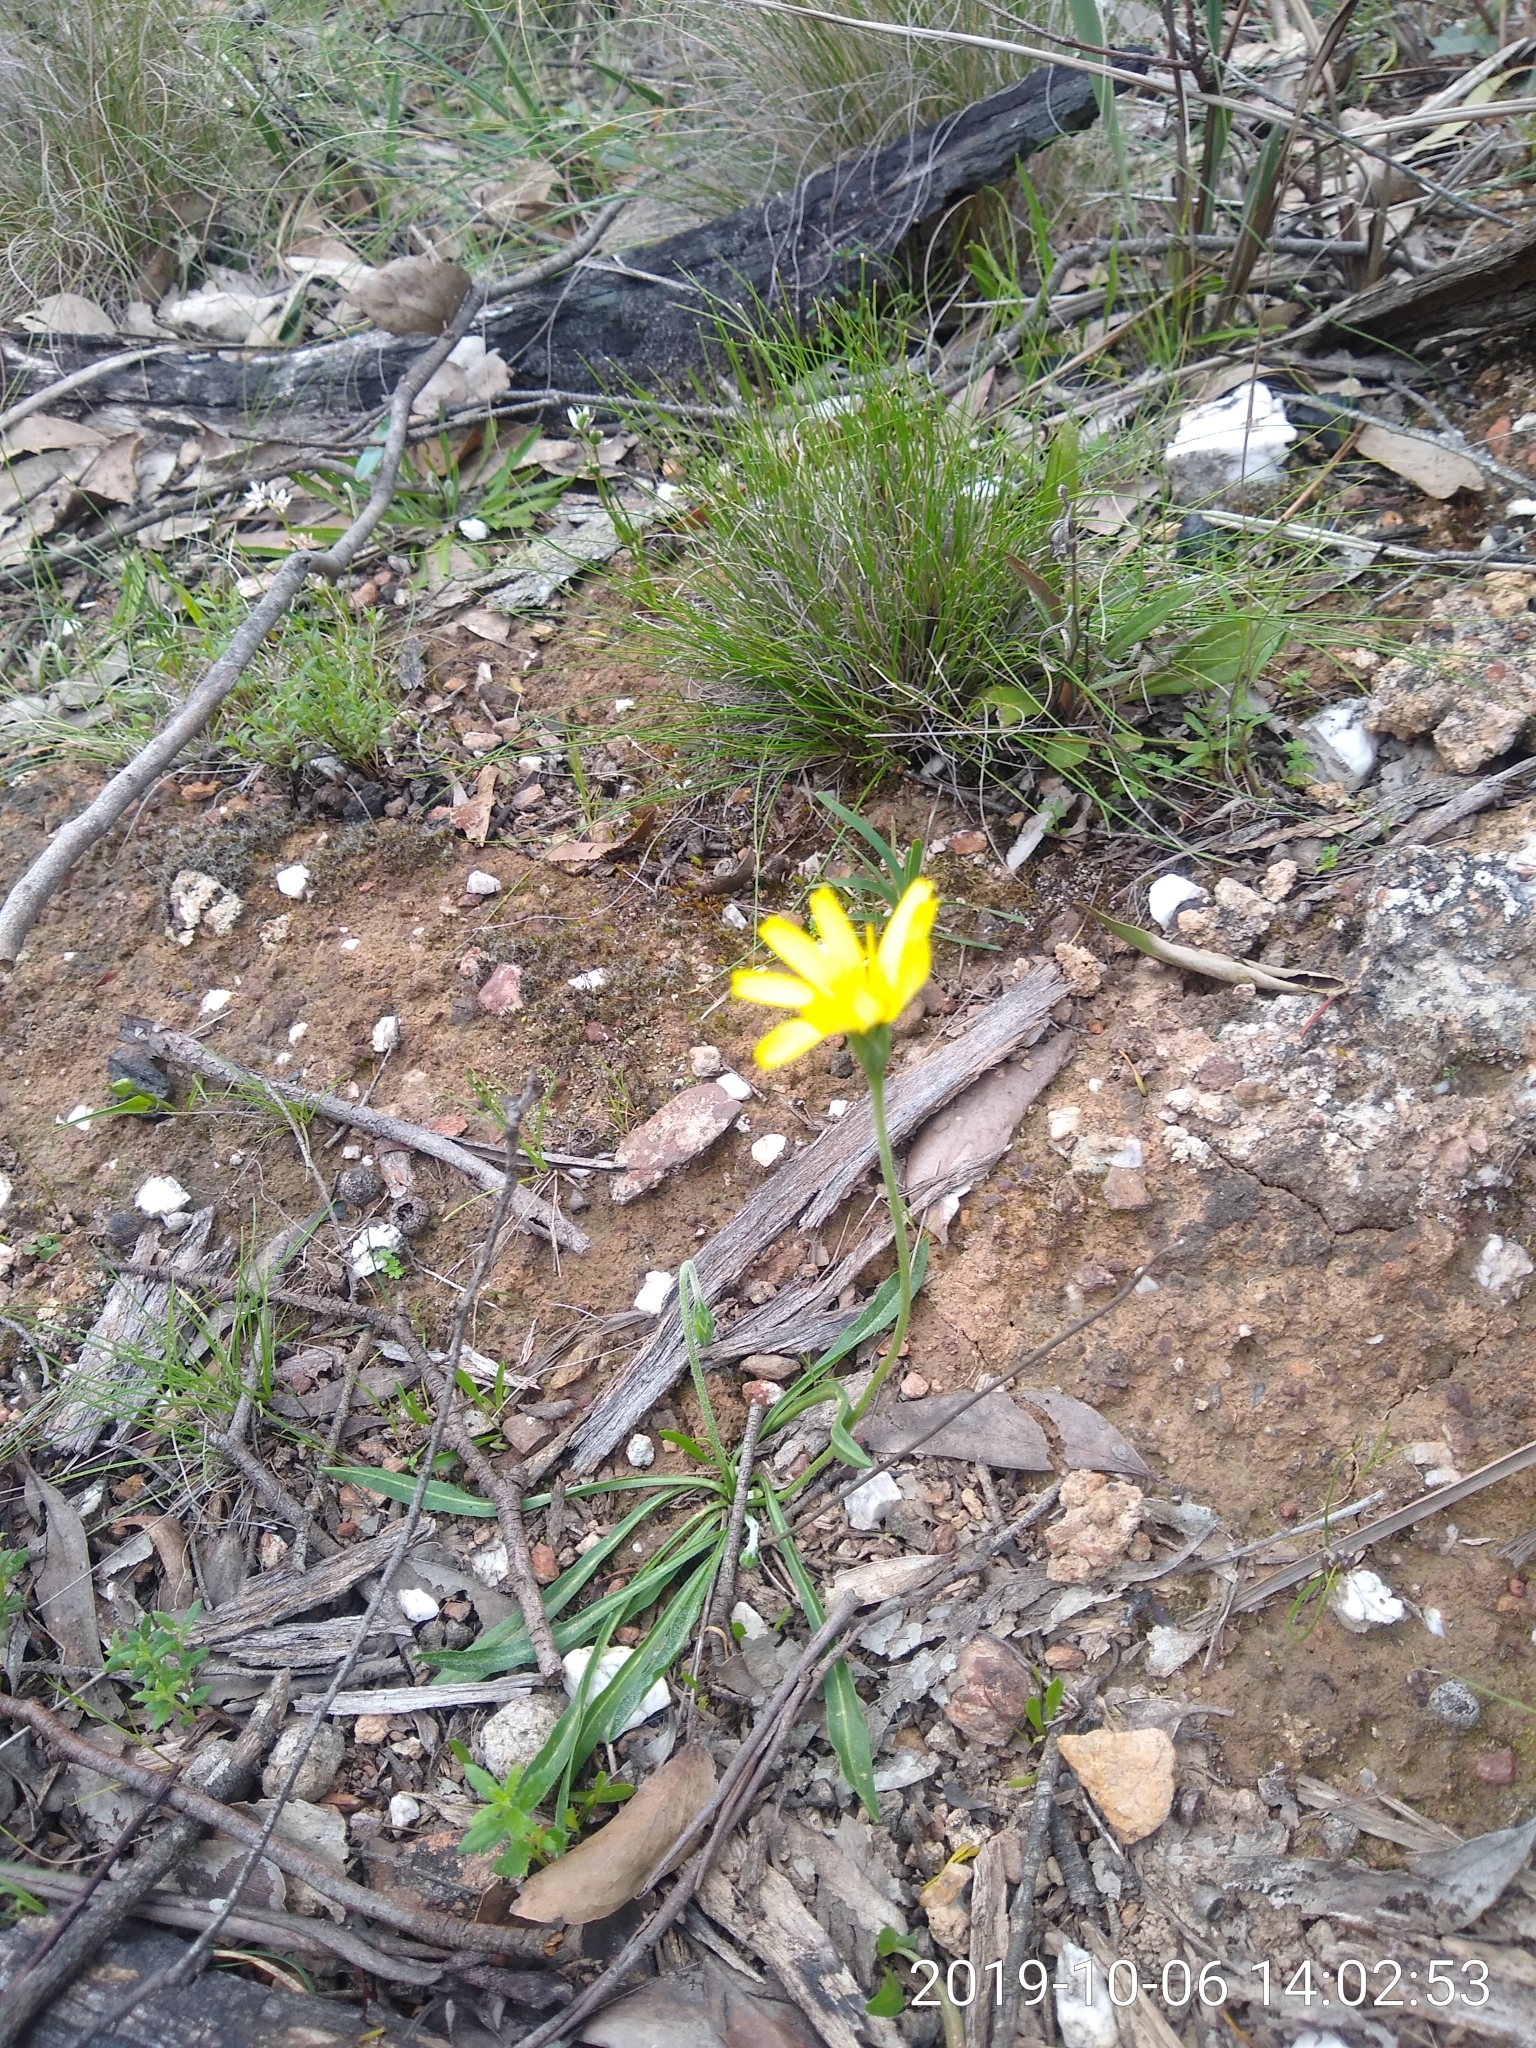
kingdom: Plantae
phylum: Tracheophyta
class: Magnoliopsida
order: Asterales
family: Asteraceae
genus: Microseris
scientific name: Microseris lanceolata
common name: Yam daisy
